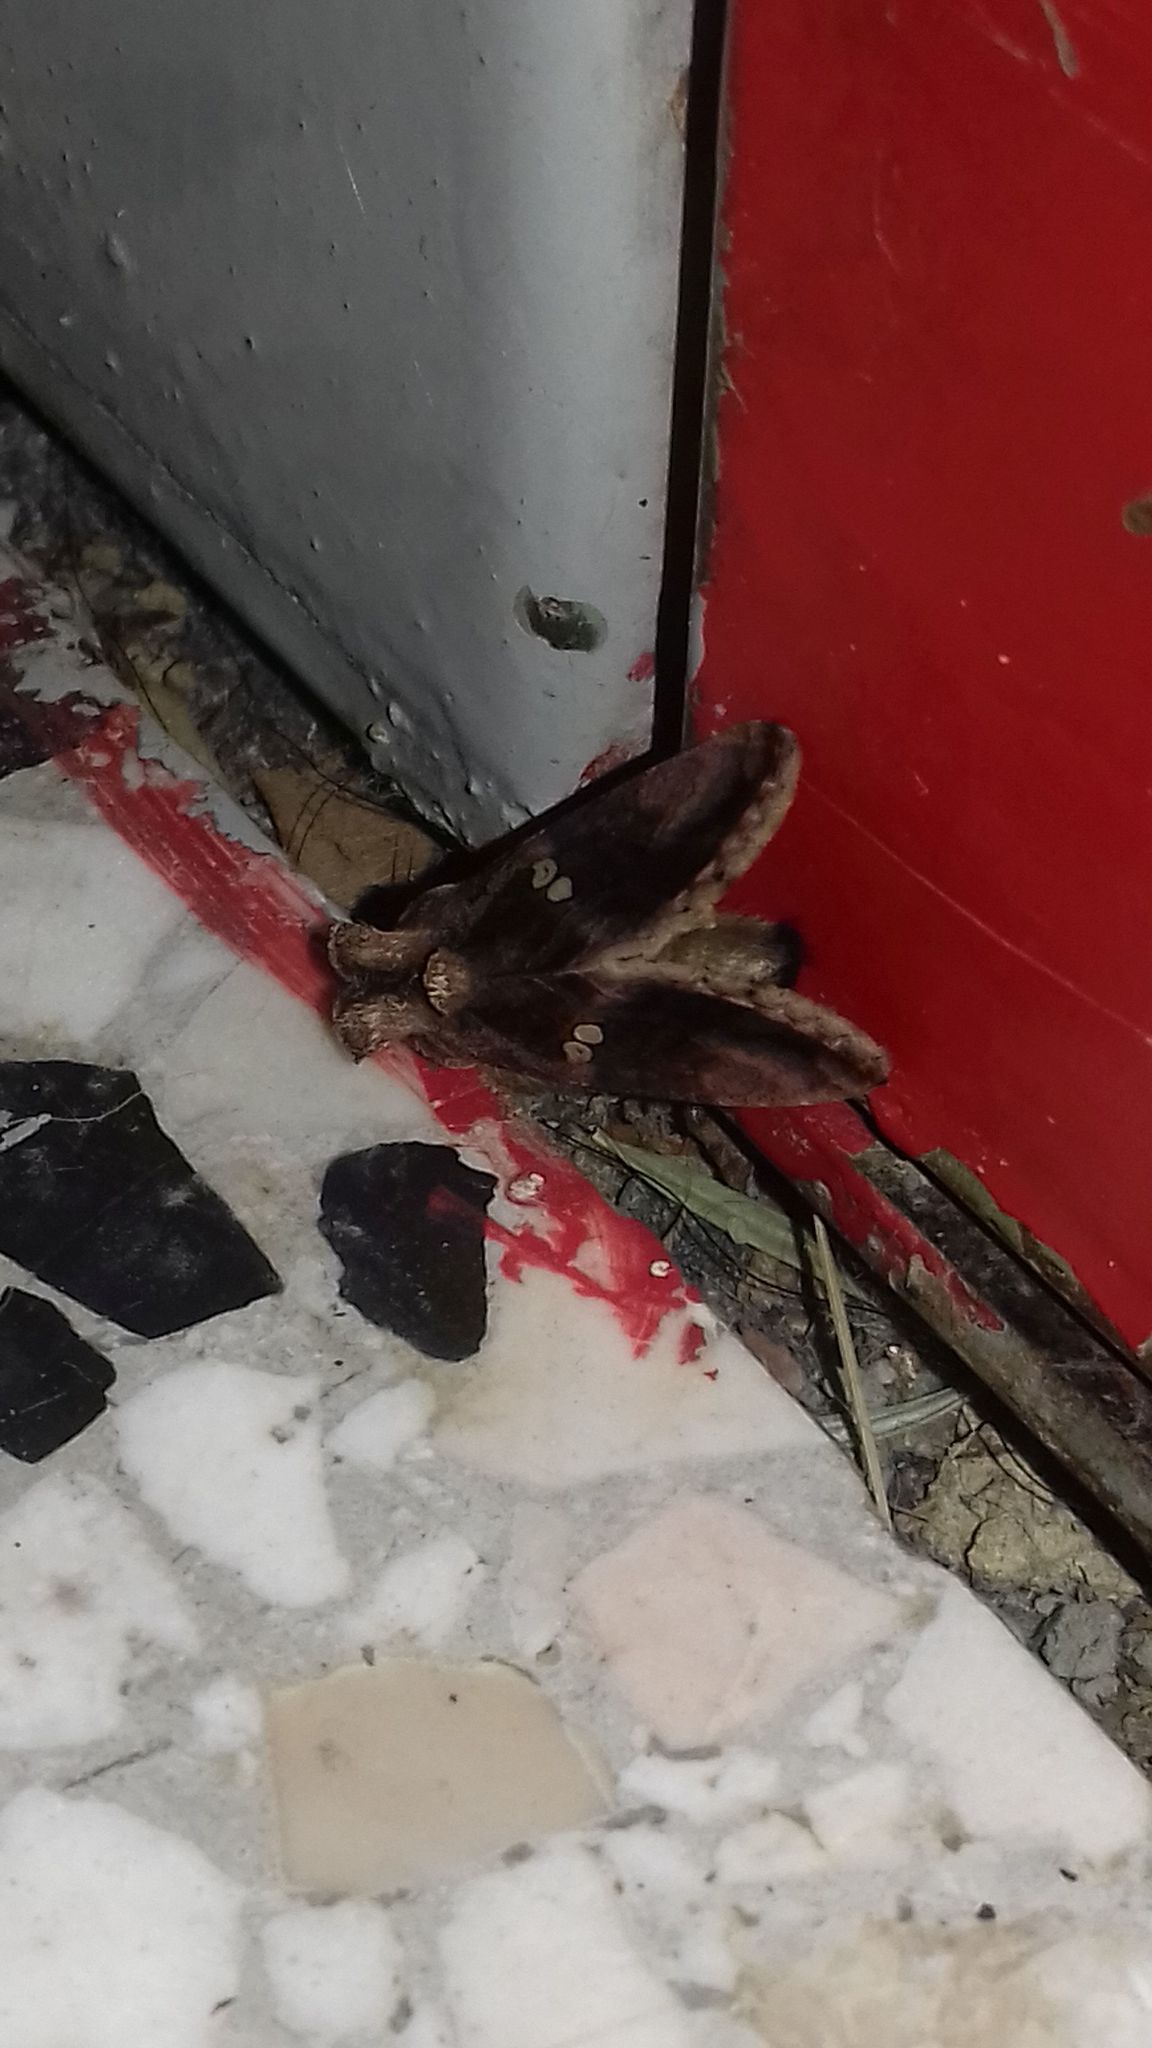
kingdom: Animalia
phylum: Arthropoda
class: Insecta
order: Lepidoptera
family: Noctuidae
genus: Chrysodeixis
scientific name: Chrysodeixis chalcites
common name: Golden twin-spot
